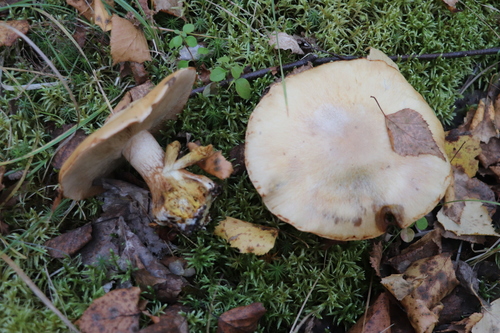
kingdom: Fungi
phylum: Basidiomycota
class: Agaricomycetes
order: Agaricales
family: Cortinariaceae
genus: Thaxterogaster
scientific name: Thaxterogaster talus
